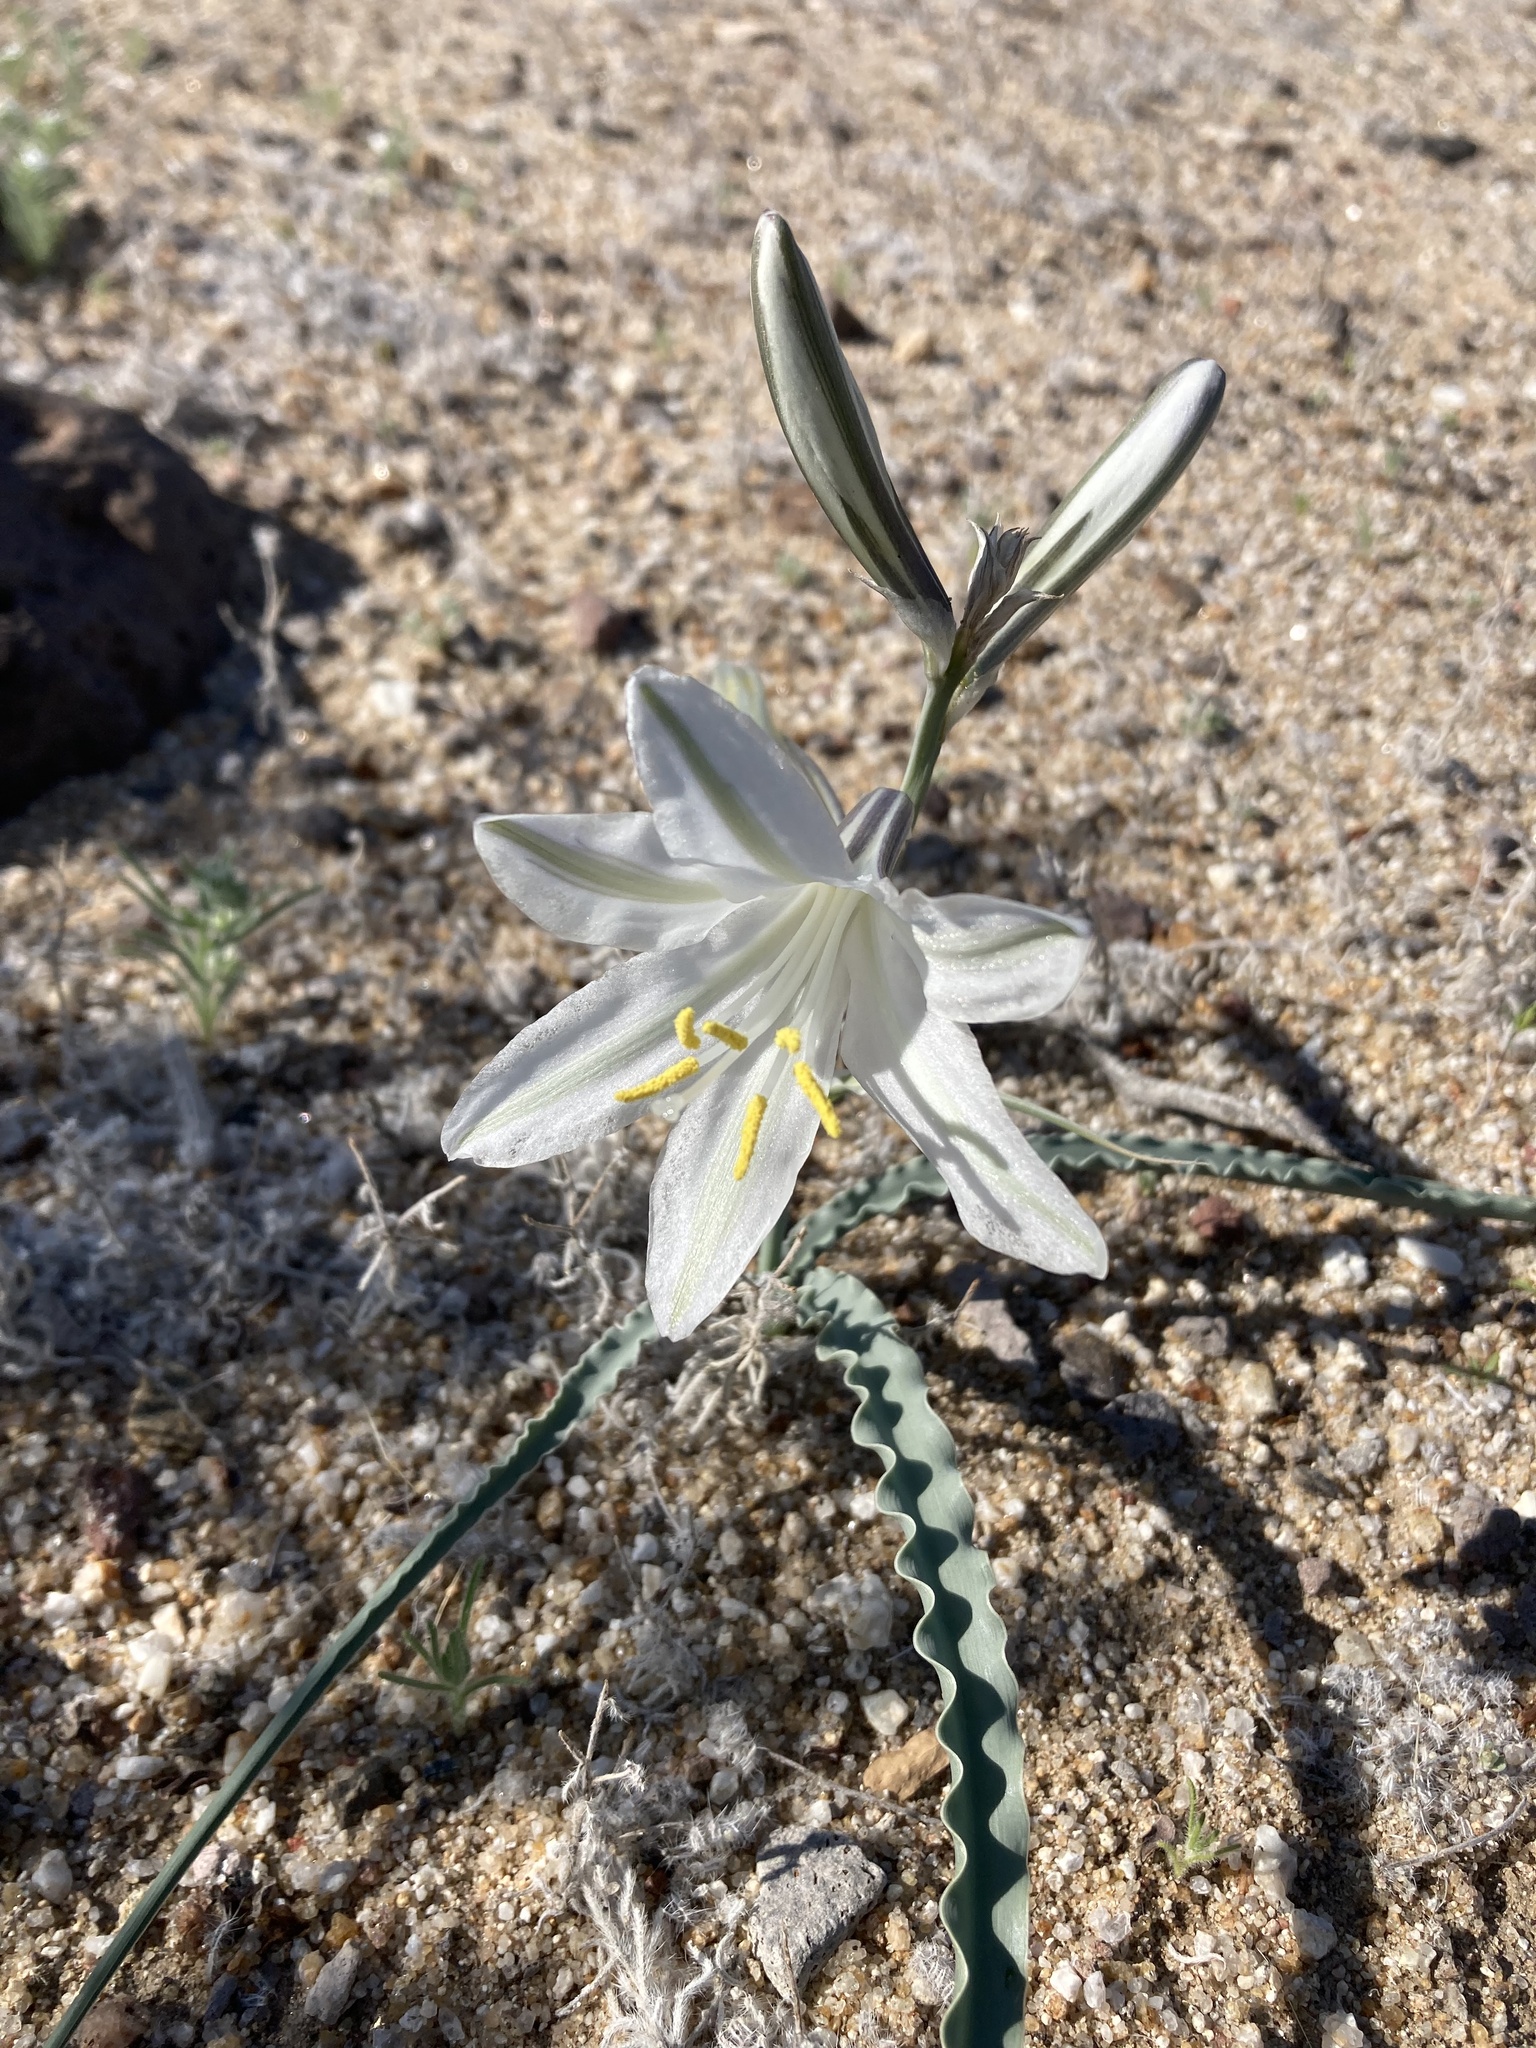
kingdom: Plantae
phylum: Tracheophyta
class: Liliopsida
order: Asparagales
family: Asparagaceae
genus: Hesperocallis
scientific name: Hesperocallis undulata
